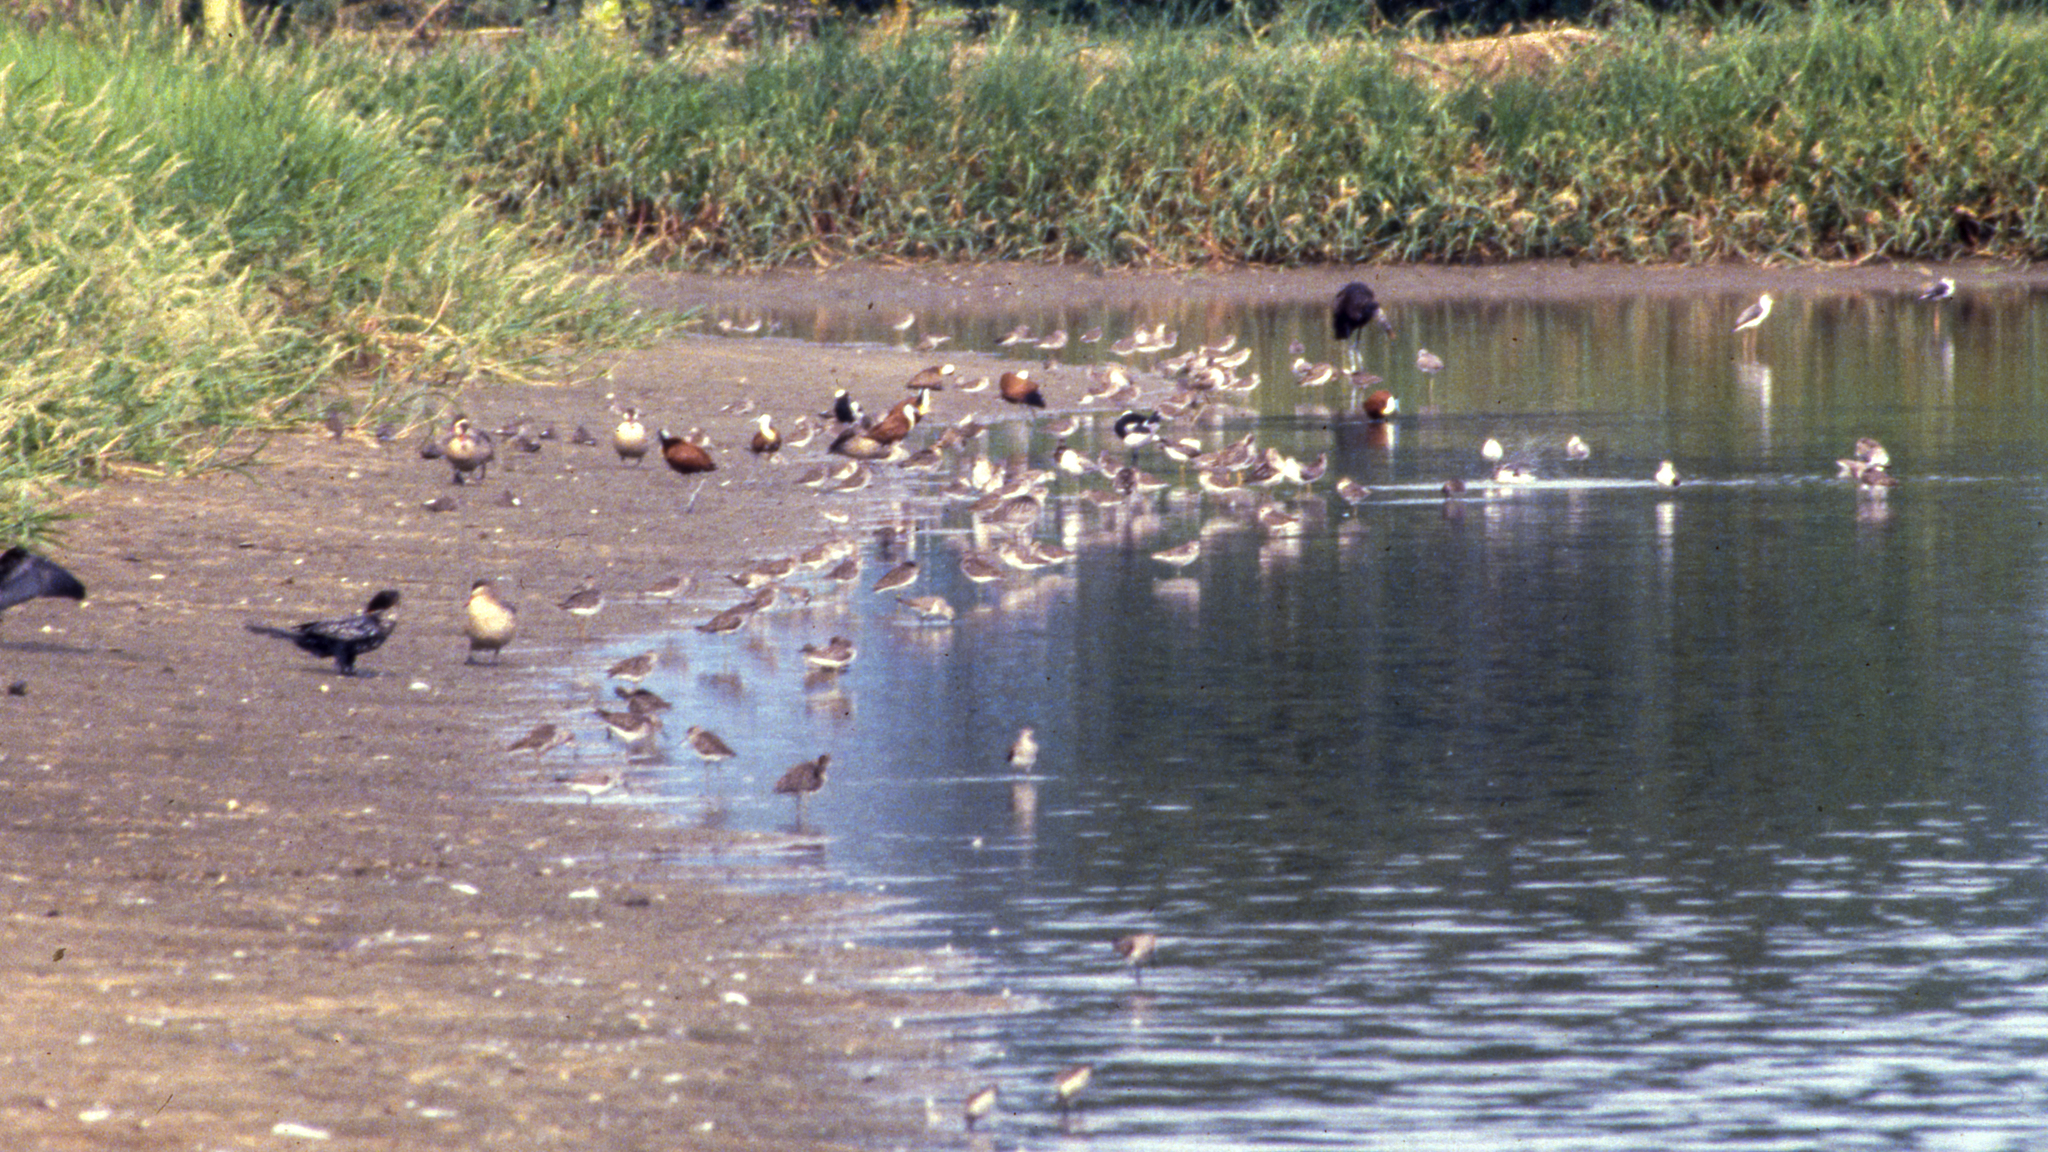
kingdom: Animalia
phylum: Chordata
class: Aves
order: Anseriformes
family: Anatidae
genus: Anas
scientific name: Anas erythrorhyncha
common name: Red-billed teal
